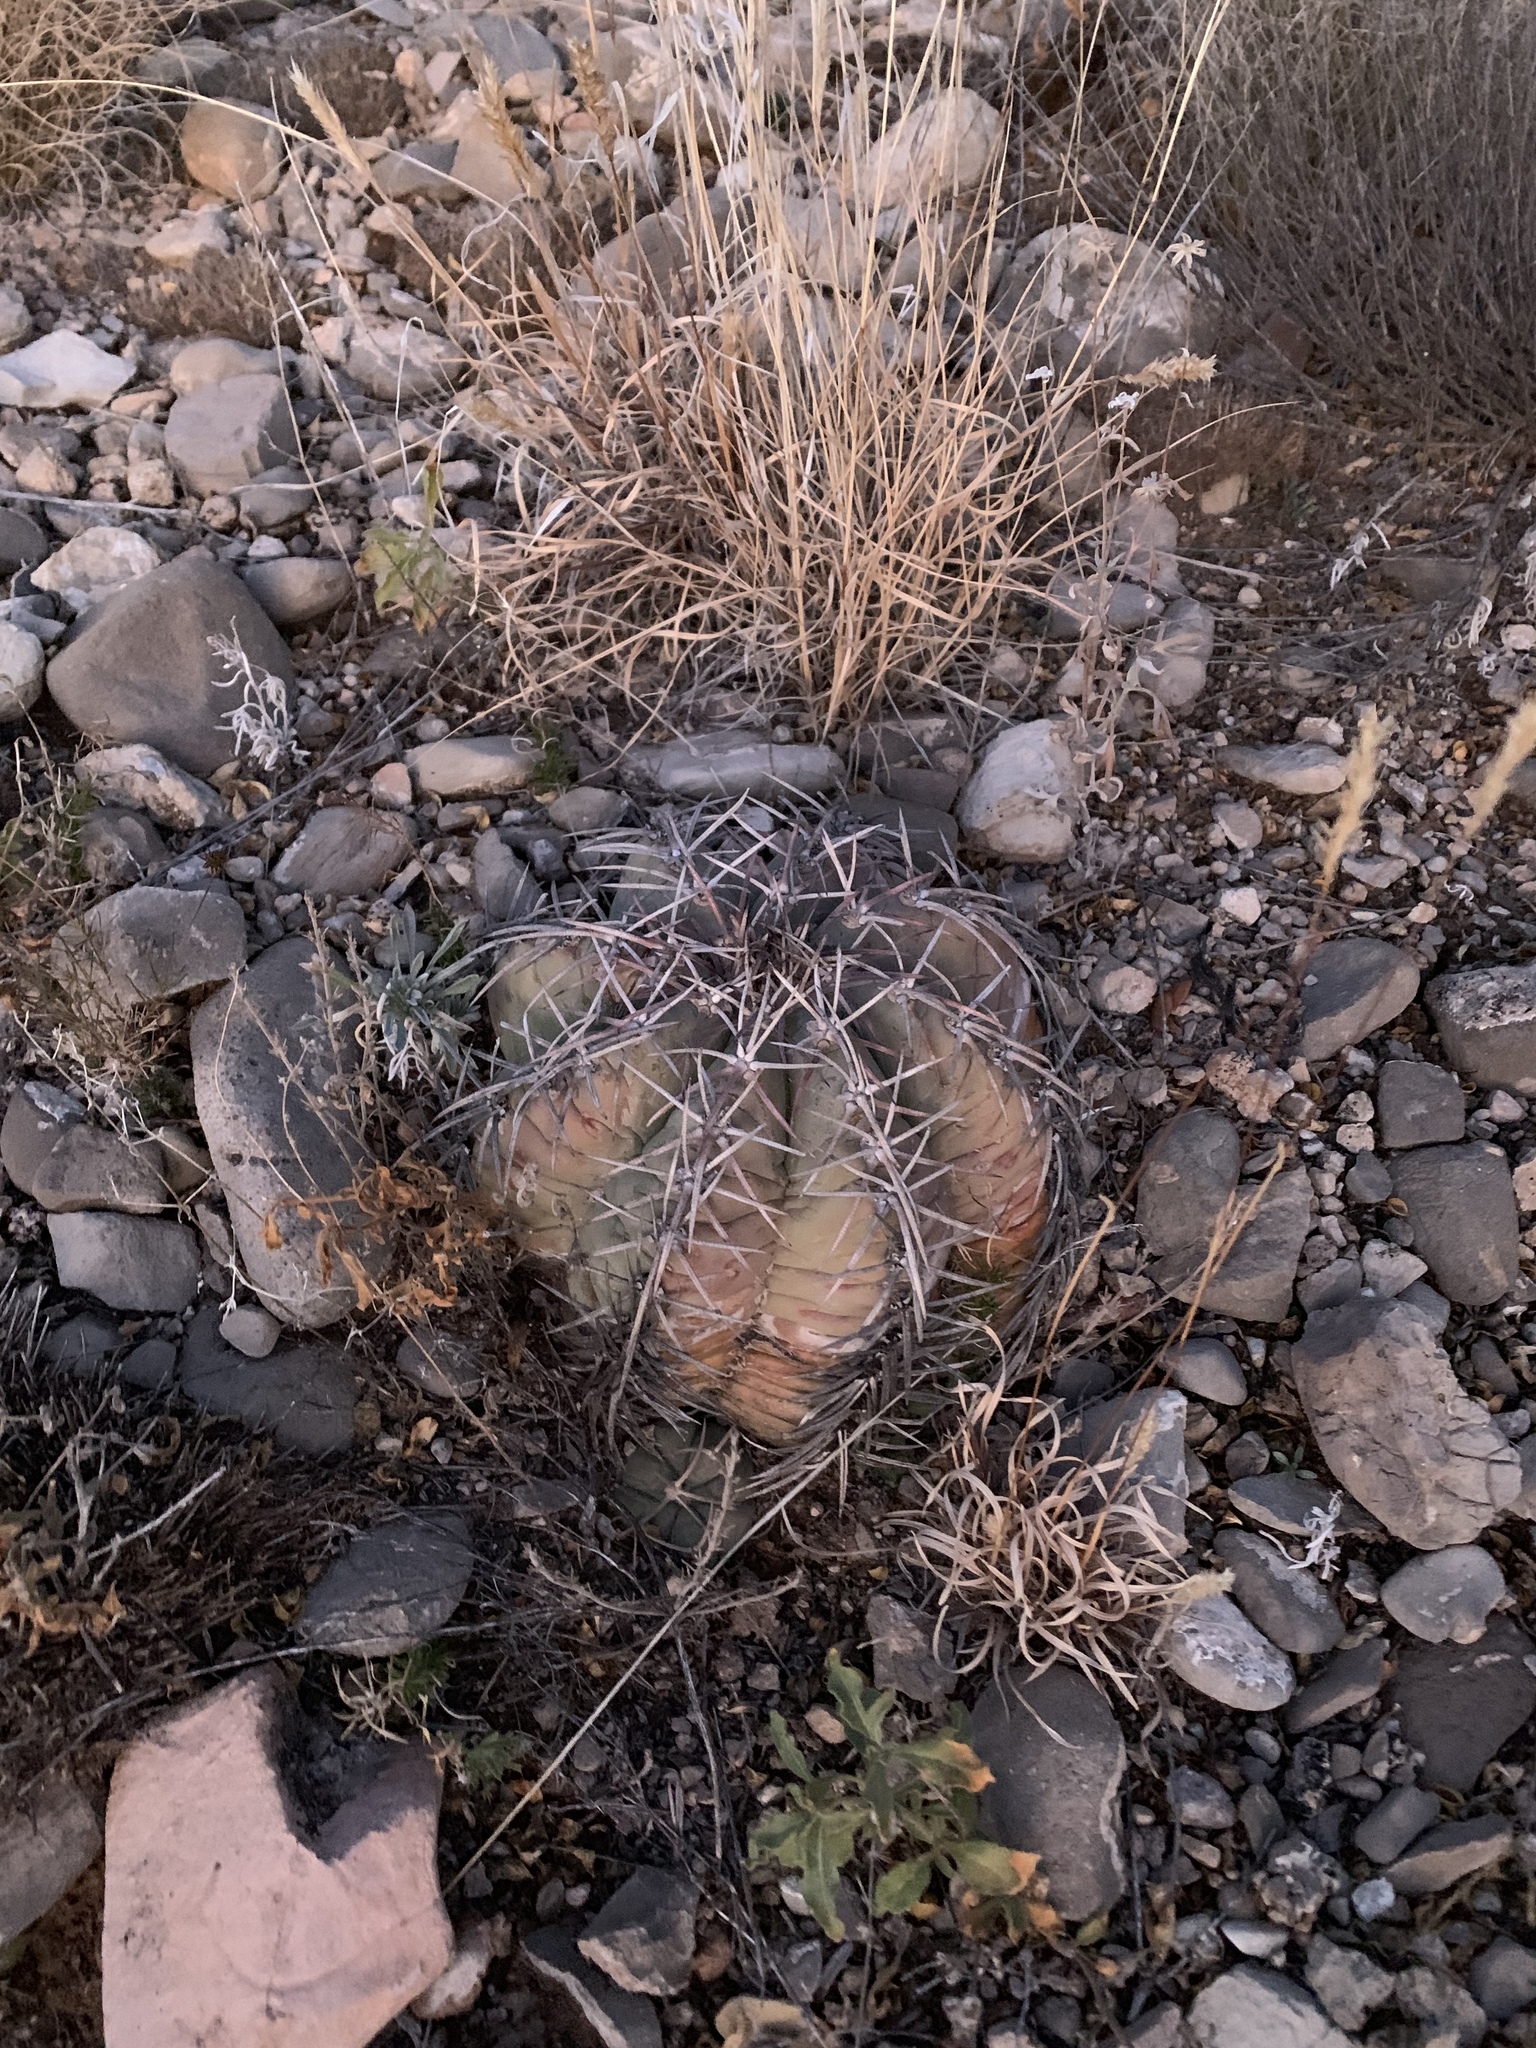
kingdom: Plantae
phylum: Tracheophyta
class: Magnoliopsida
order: Caryophyllales
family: Cactaceae
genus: Echinocactus
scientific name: Echinocactus horizonthalonius
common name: Devilshead
